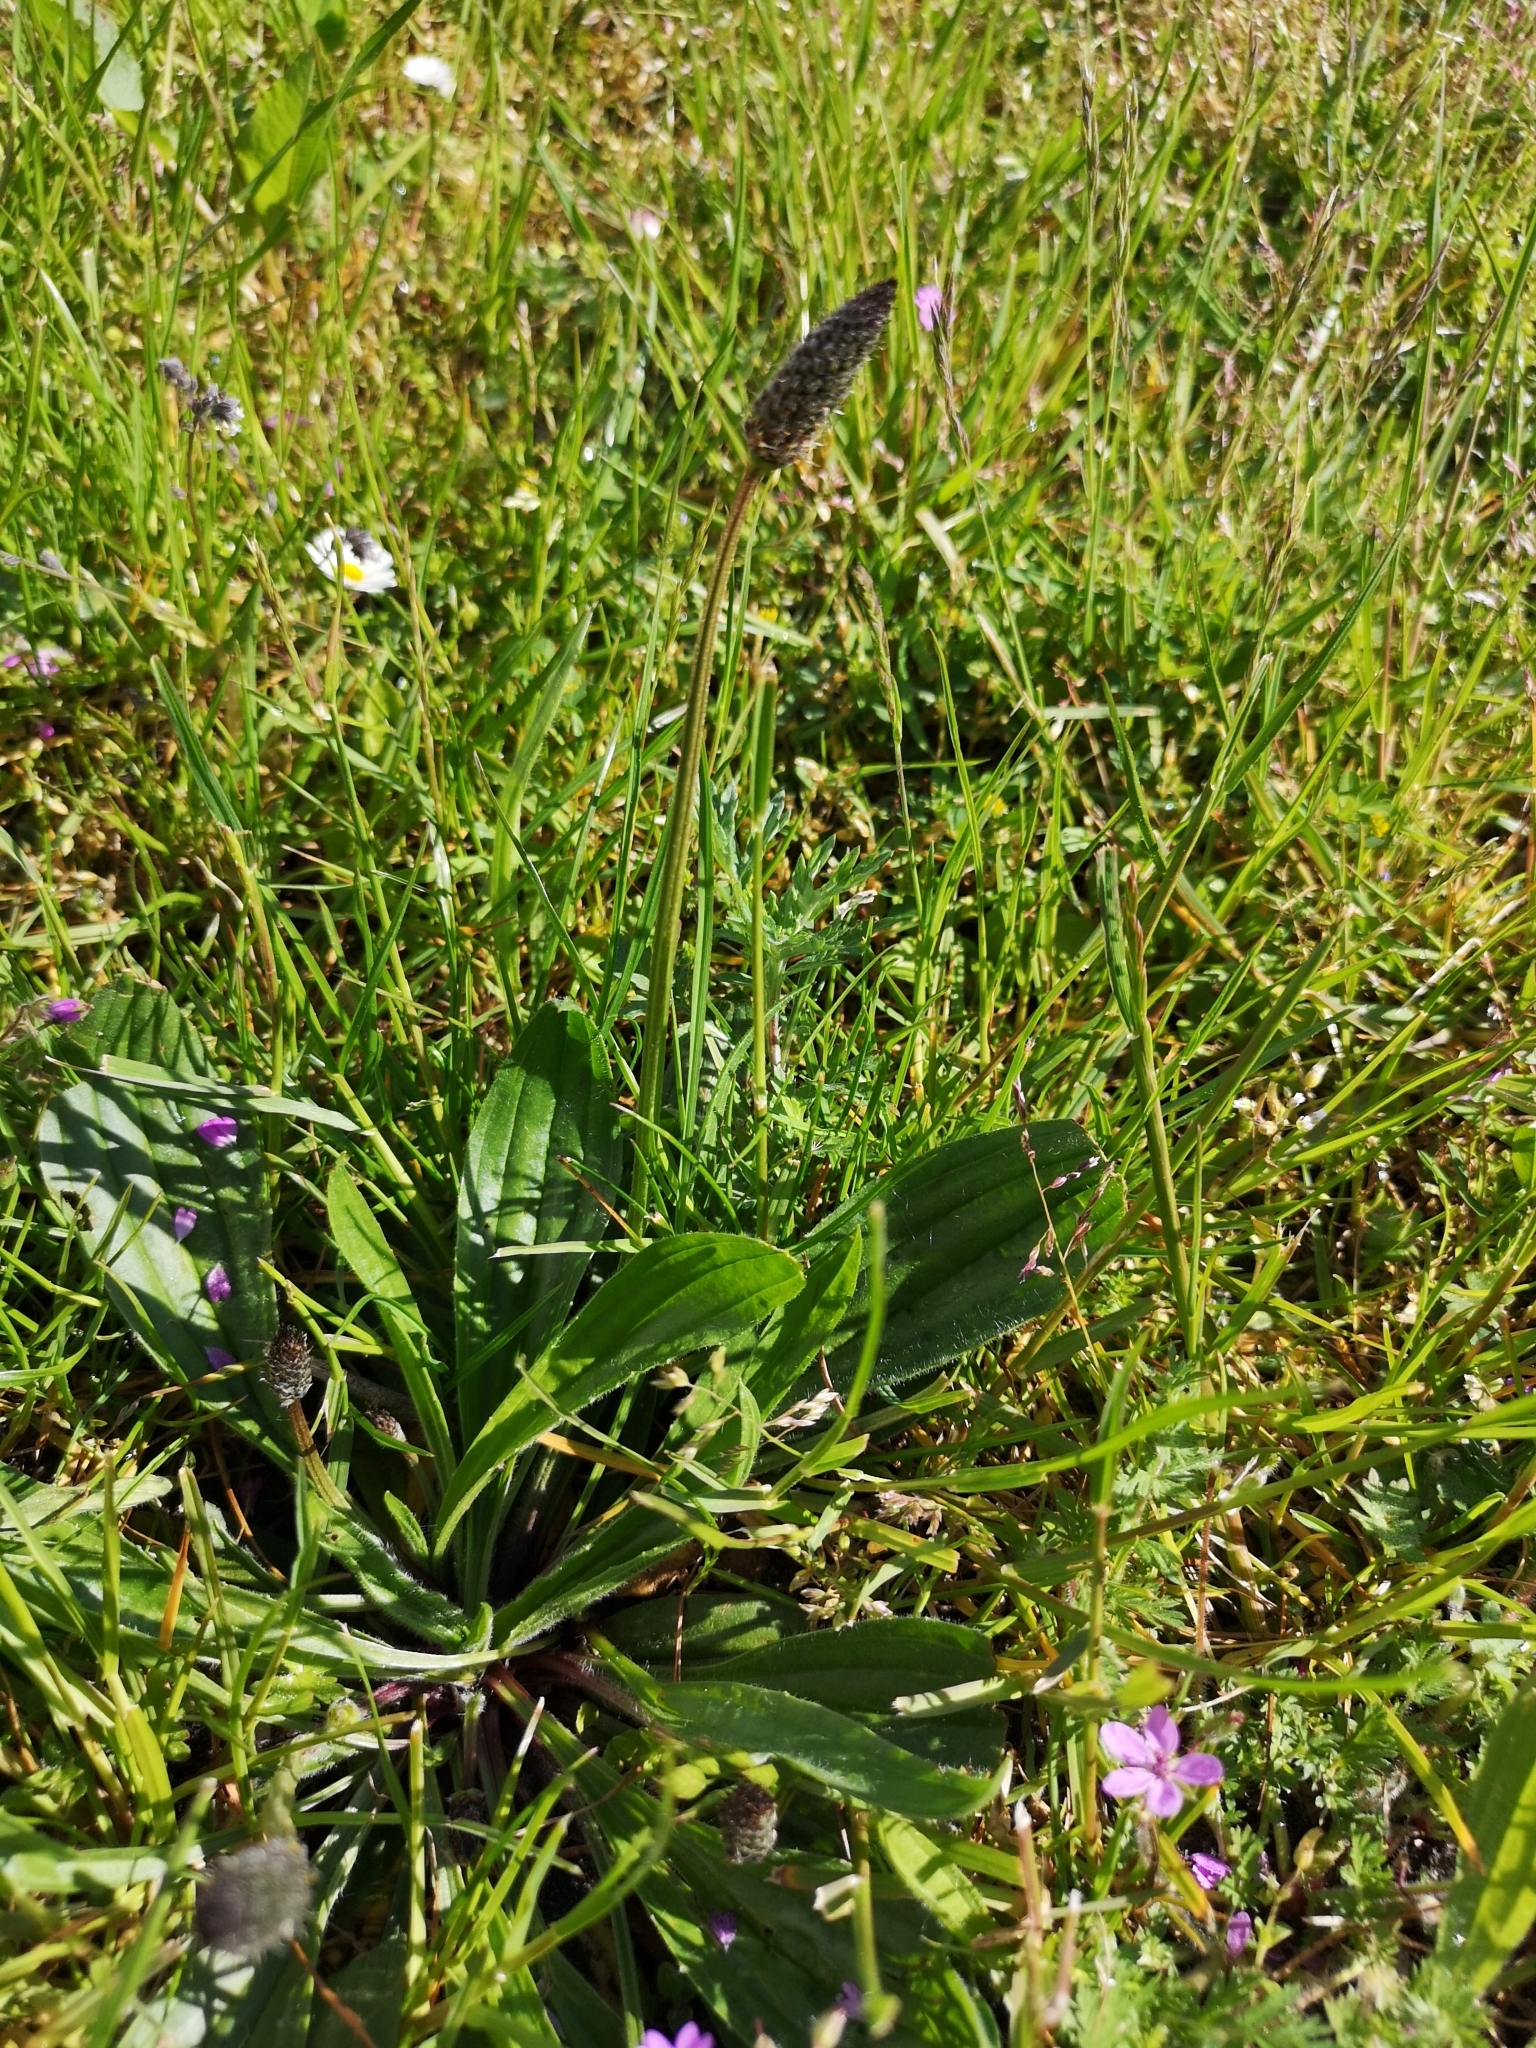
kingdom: Plantae
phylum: Tracheophyta
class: Magnoliopsida
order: Lamiales
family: Plantaginaceae
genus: Plantago
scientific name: Plantago lanceolata
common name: Ribwort plantain
